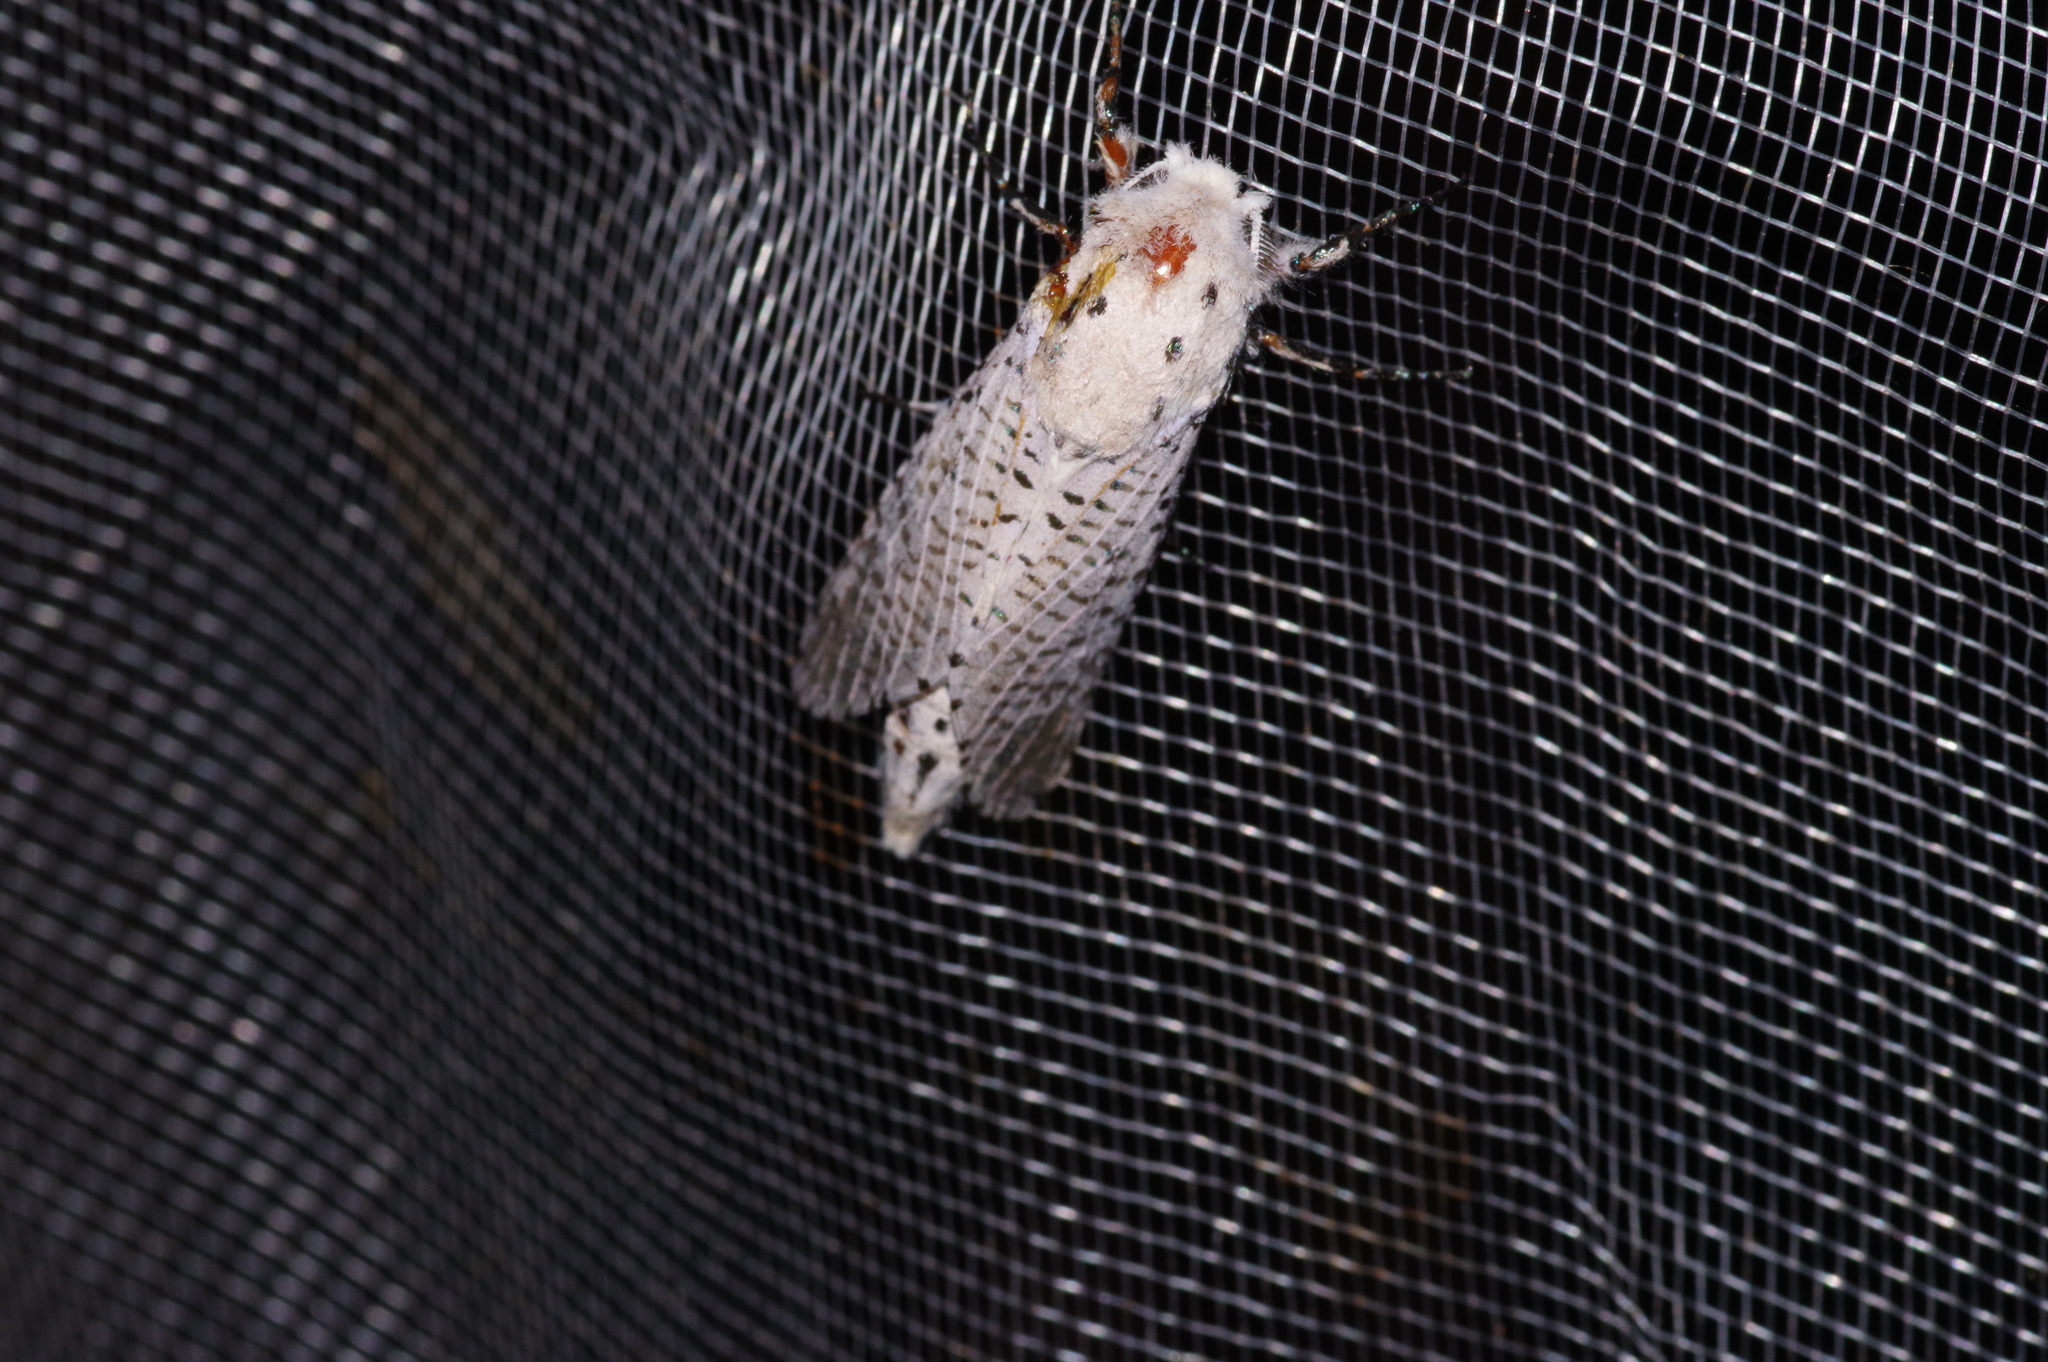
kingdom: Animalia
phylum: Arthropoda
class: Insecta
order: Lepidoptera
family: Cossidae
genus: Orientozeuzera
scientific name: Orientozeuzera caudata
